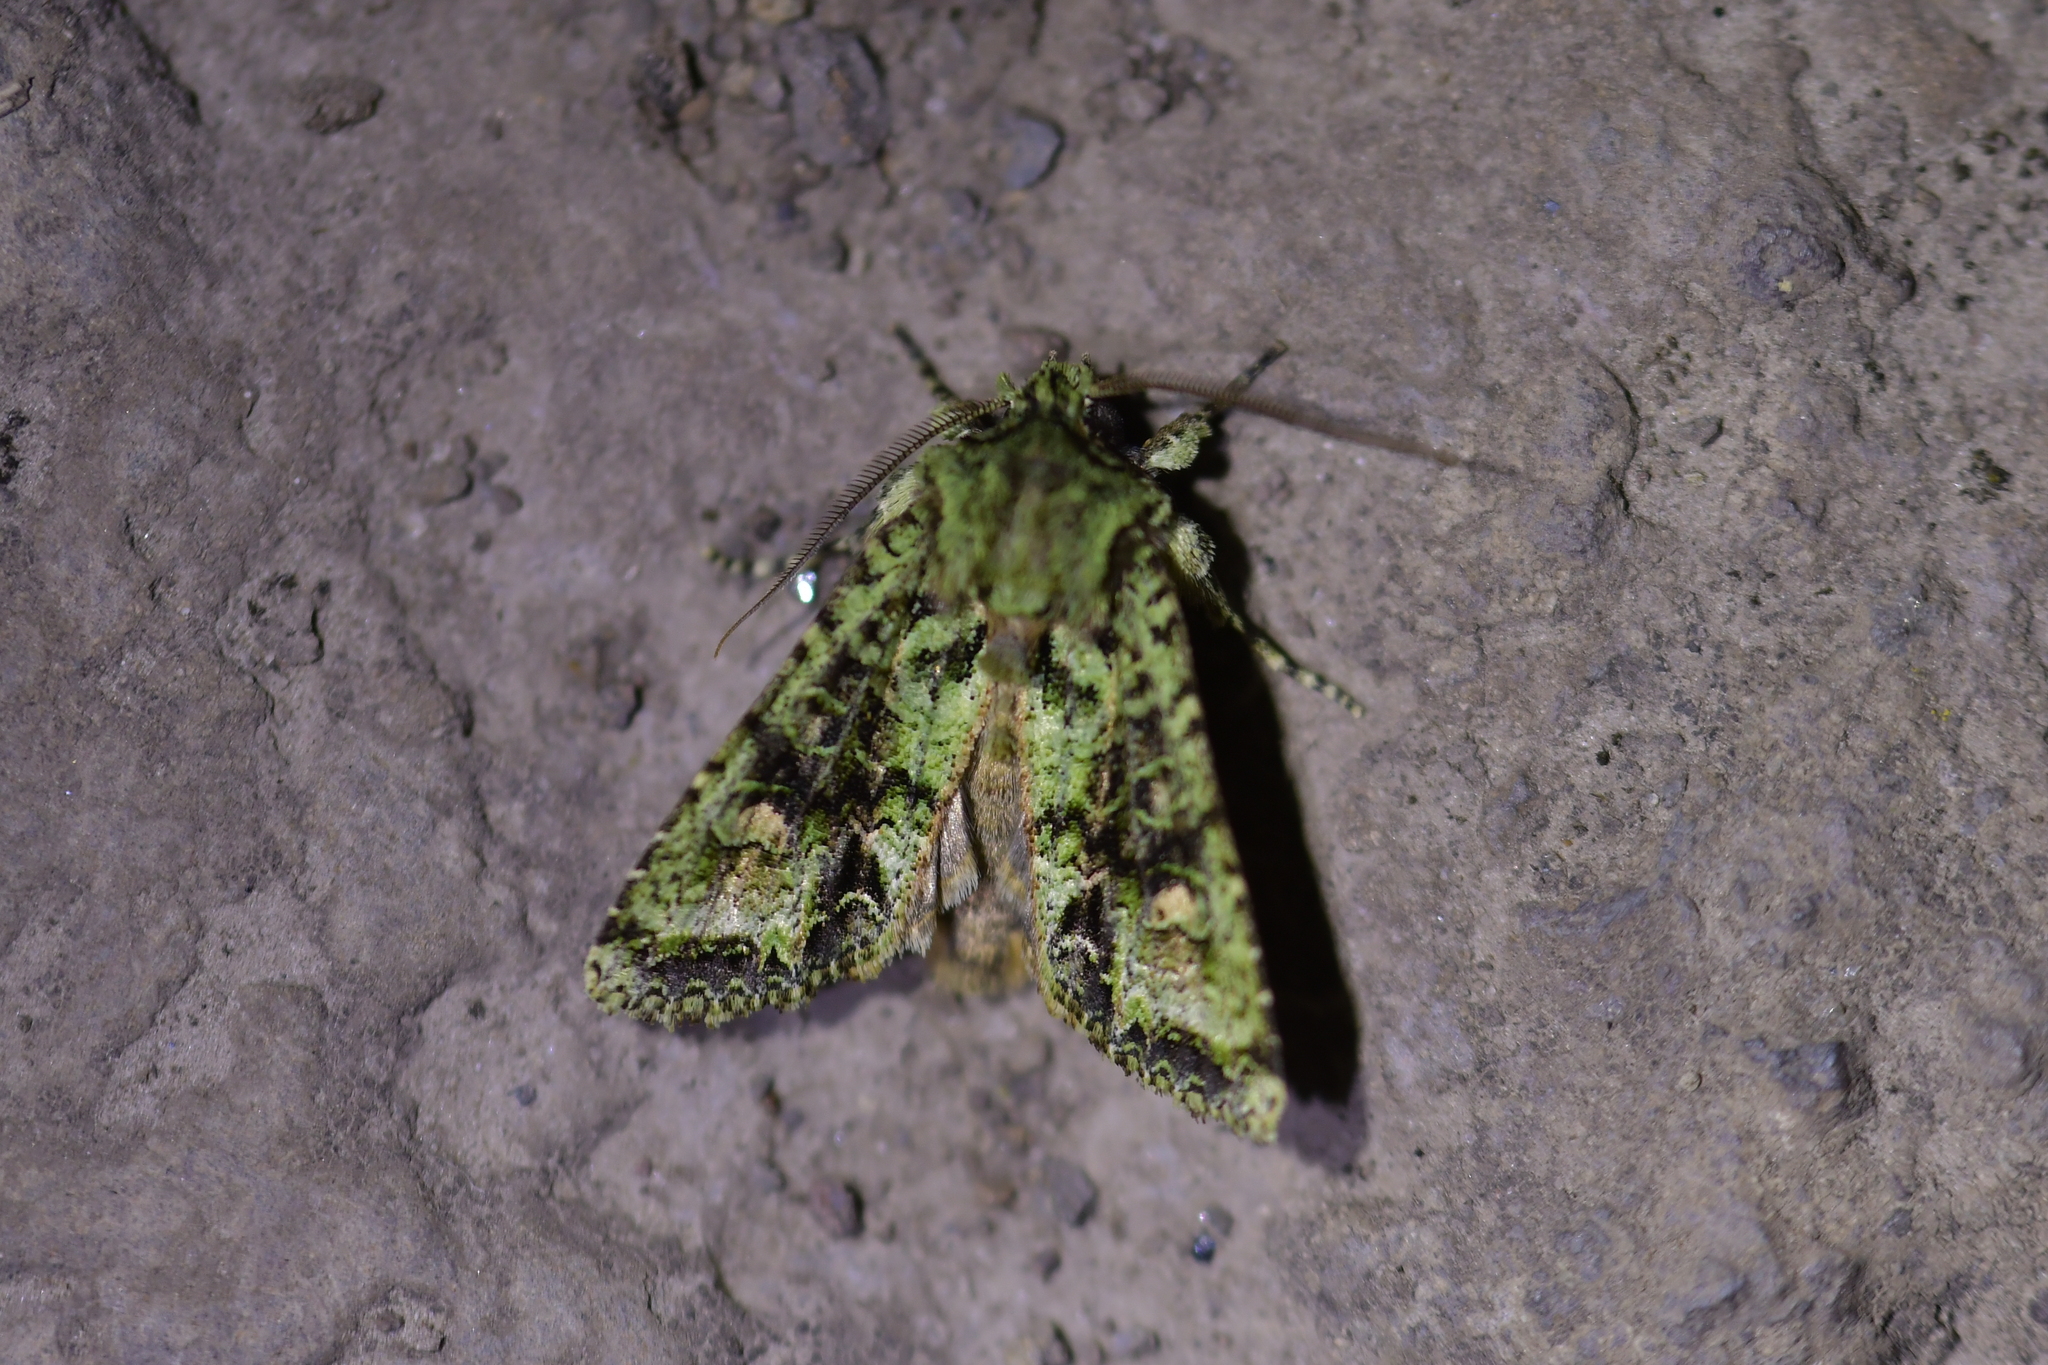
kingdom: Animalia
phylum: Arthropoda
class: Insecta
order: Lepidoptera
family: Noctuidae
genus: Ichneutica
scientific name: Ichneutica
